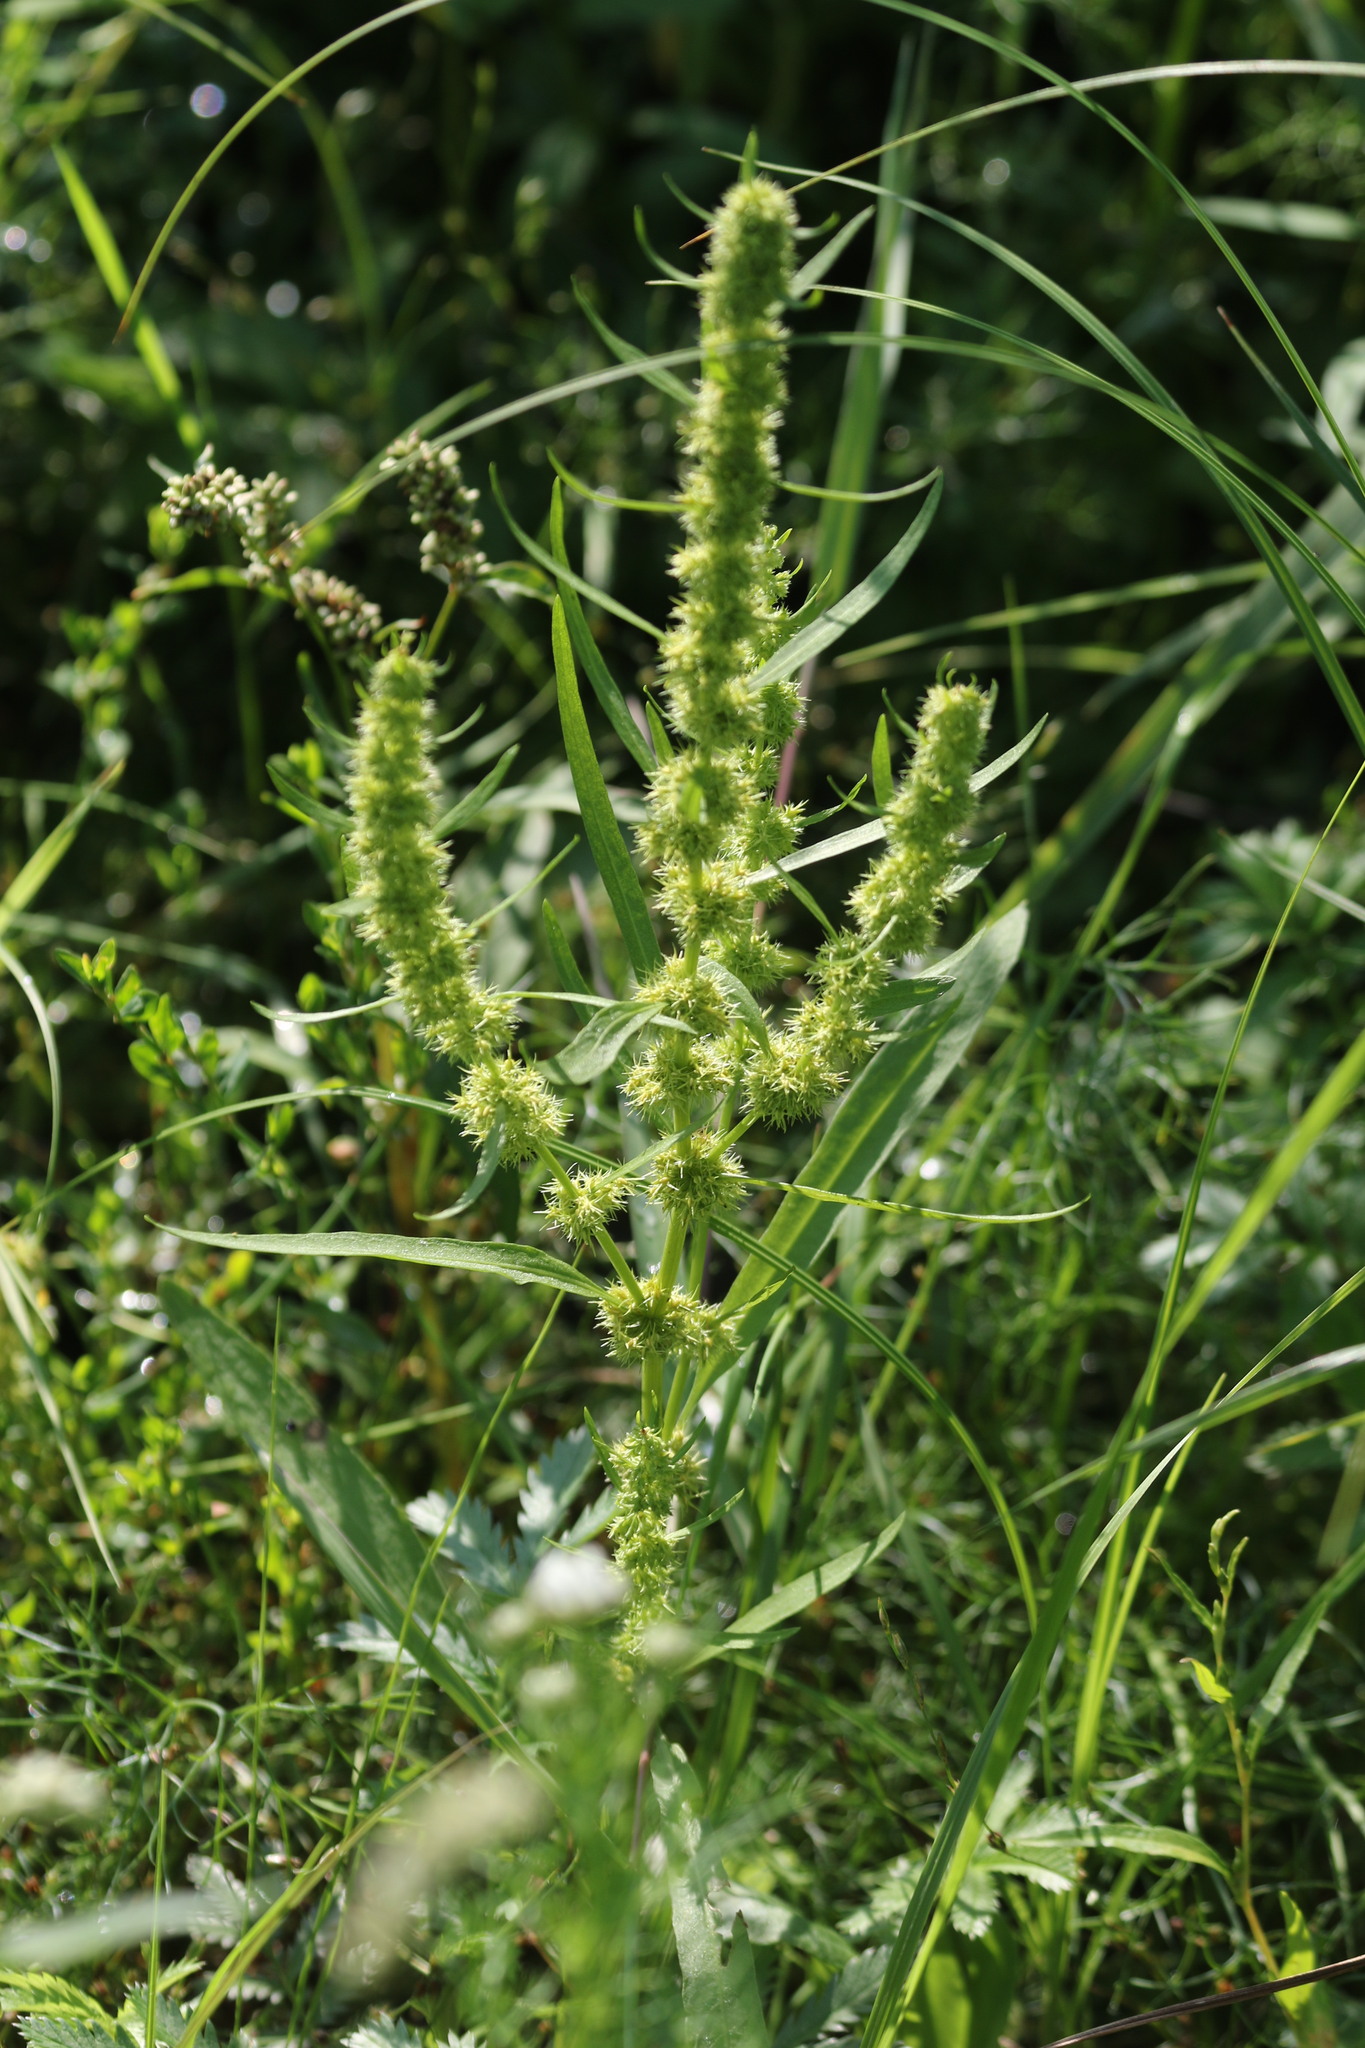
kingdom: Plantae
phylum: Tracheophyta
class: Magnoliopsida
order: Caryophyllales
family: Polygonaceae
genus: Rumex
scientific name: Rumex maritimus
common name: Golden dock
